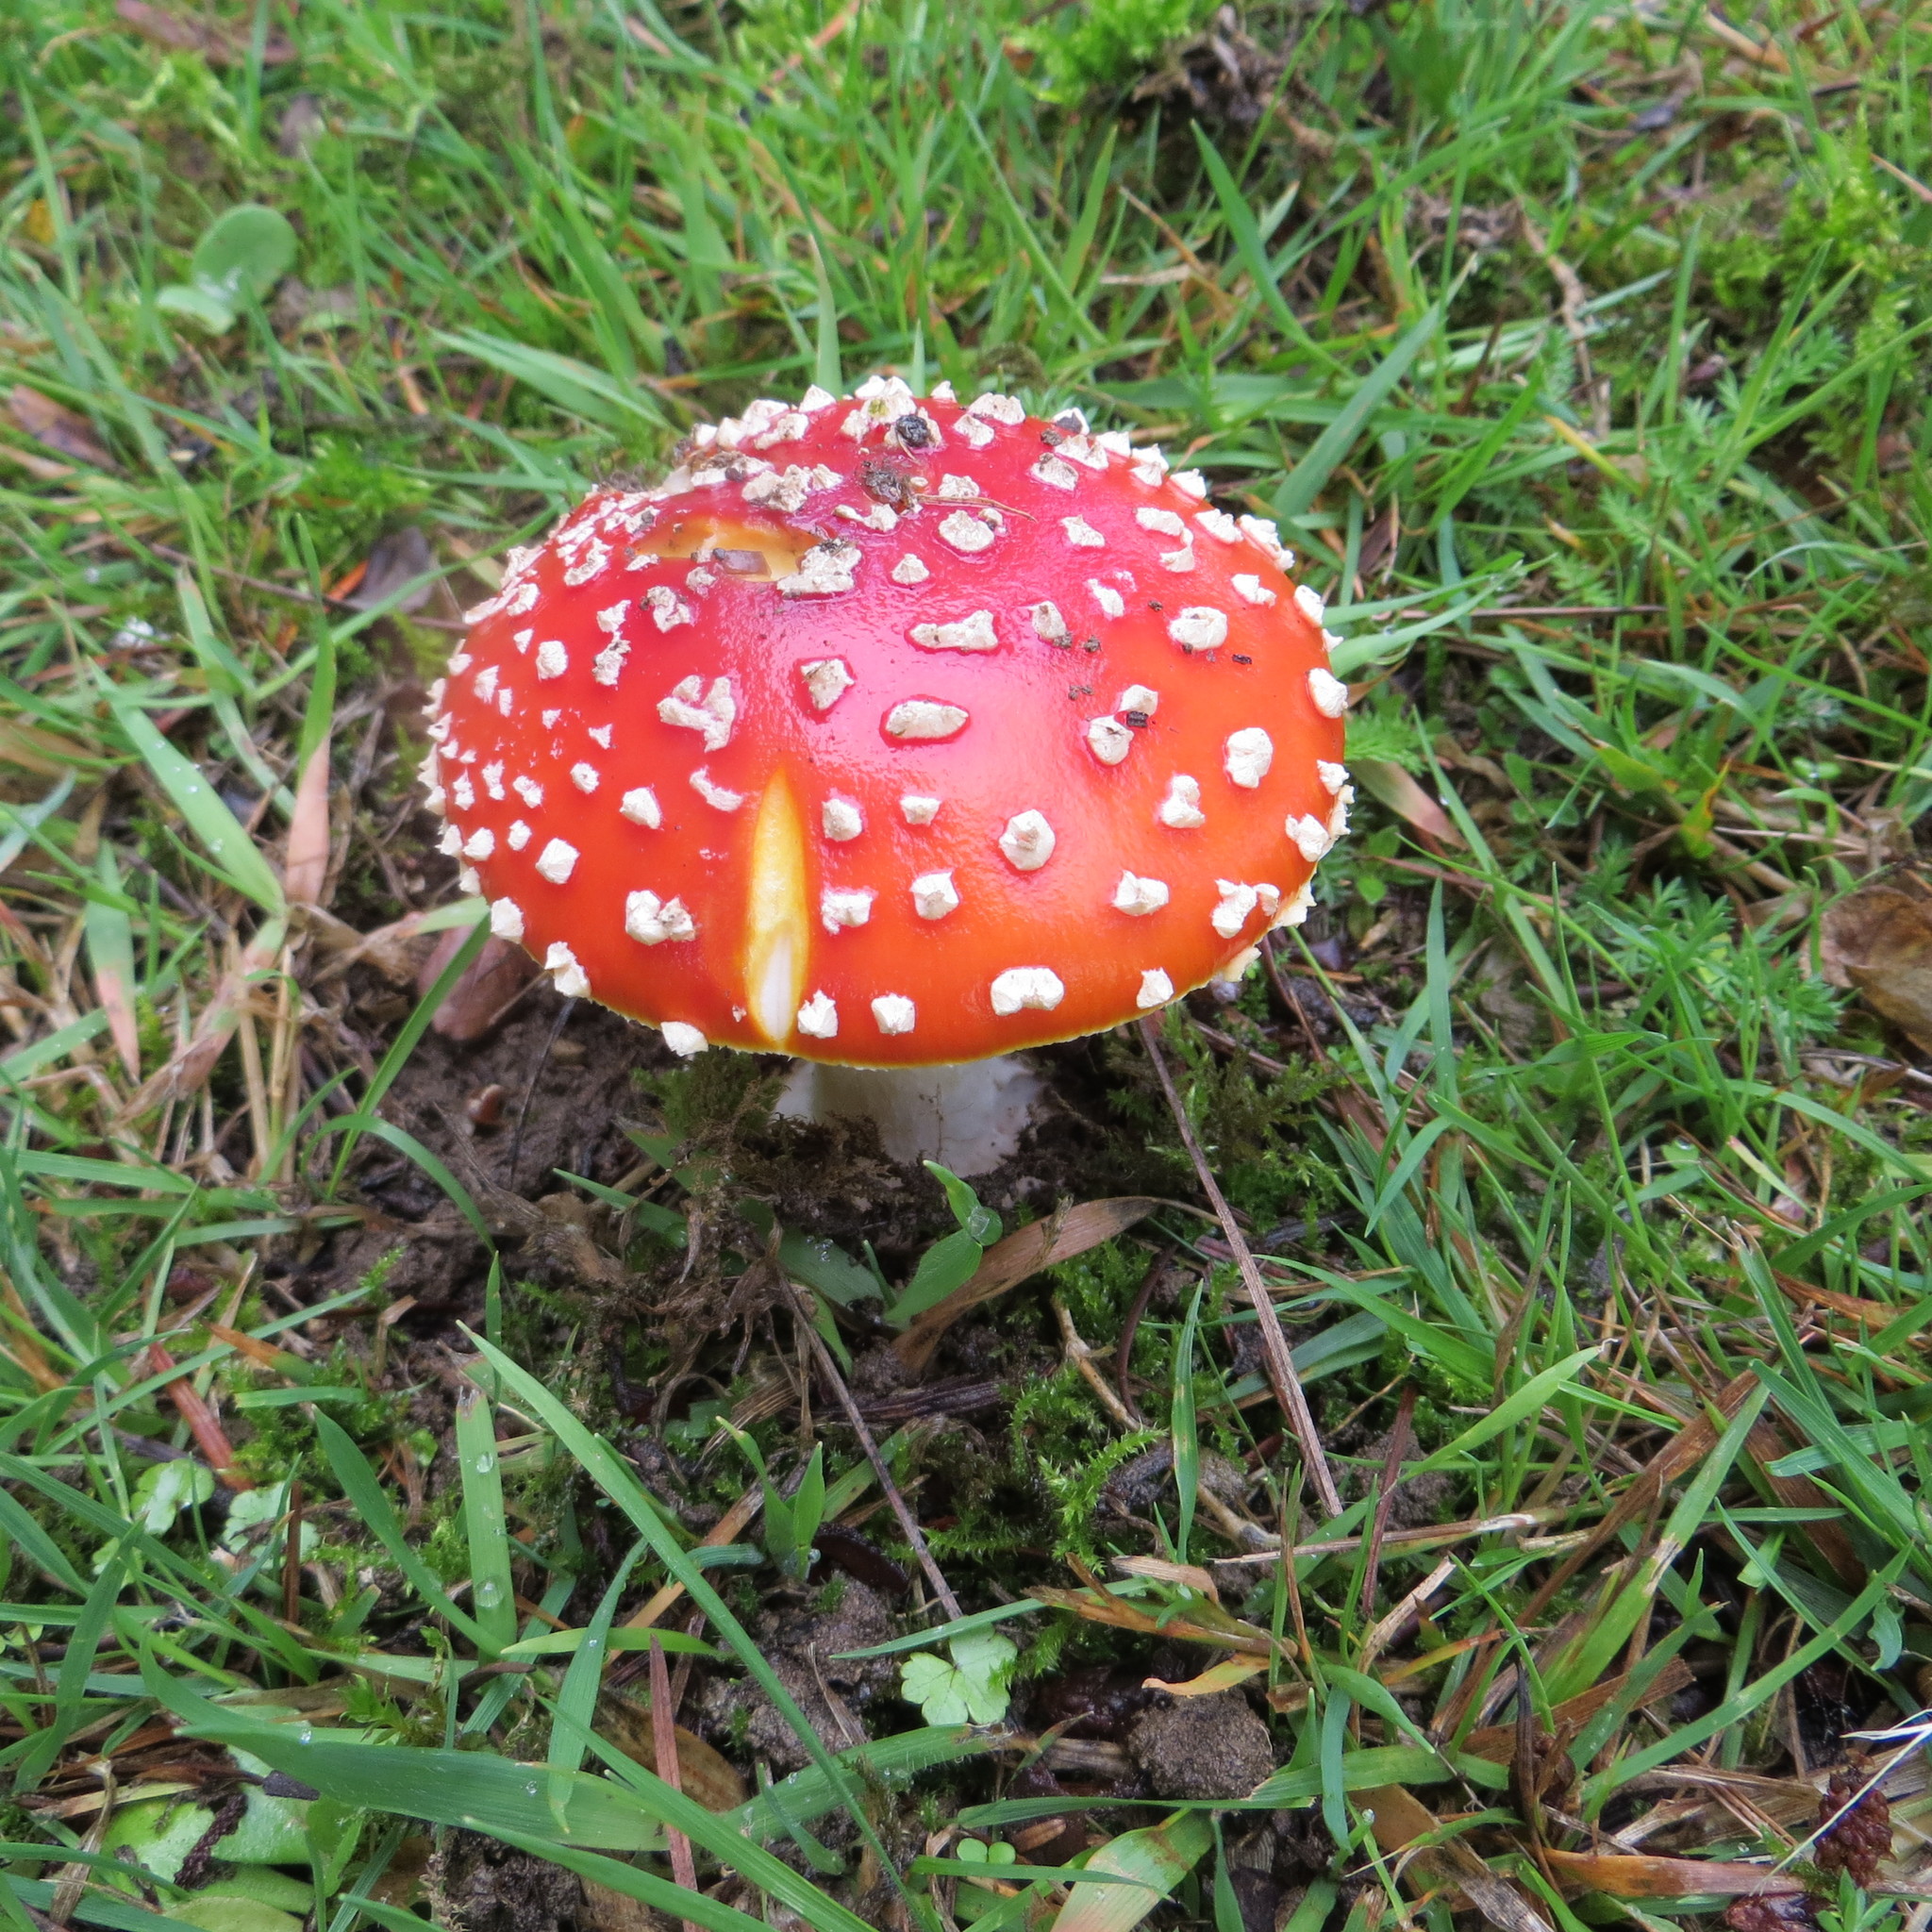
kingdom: Fungi
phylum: Basidiomycota
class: Agaricomycetes
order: Agaricales
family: Amanitaceae
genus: Amanita
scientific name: Amanita muscaria
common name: Fly agaric
